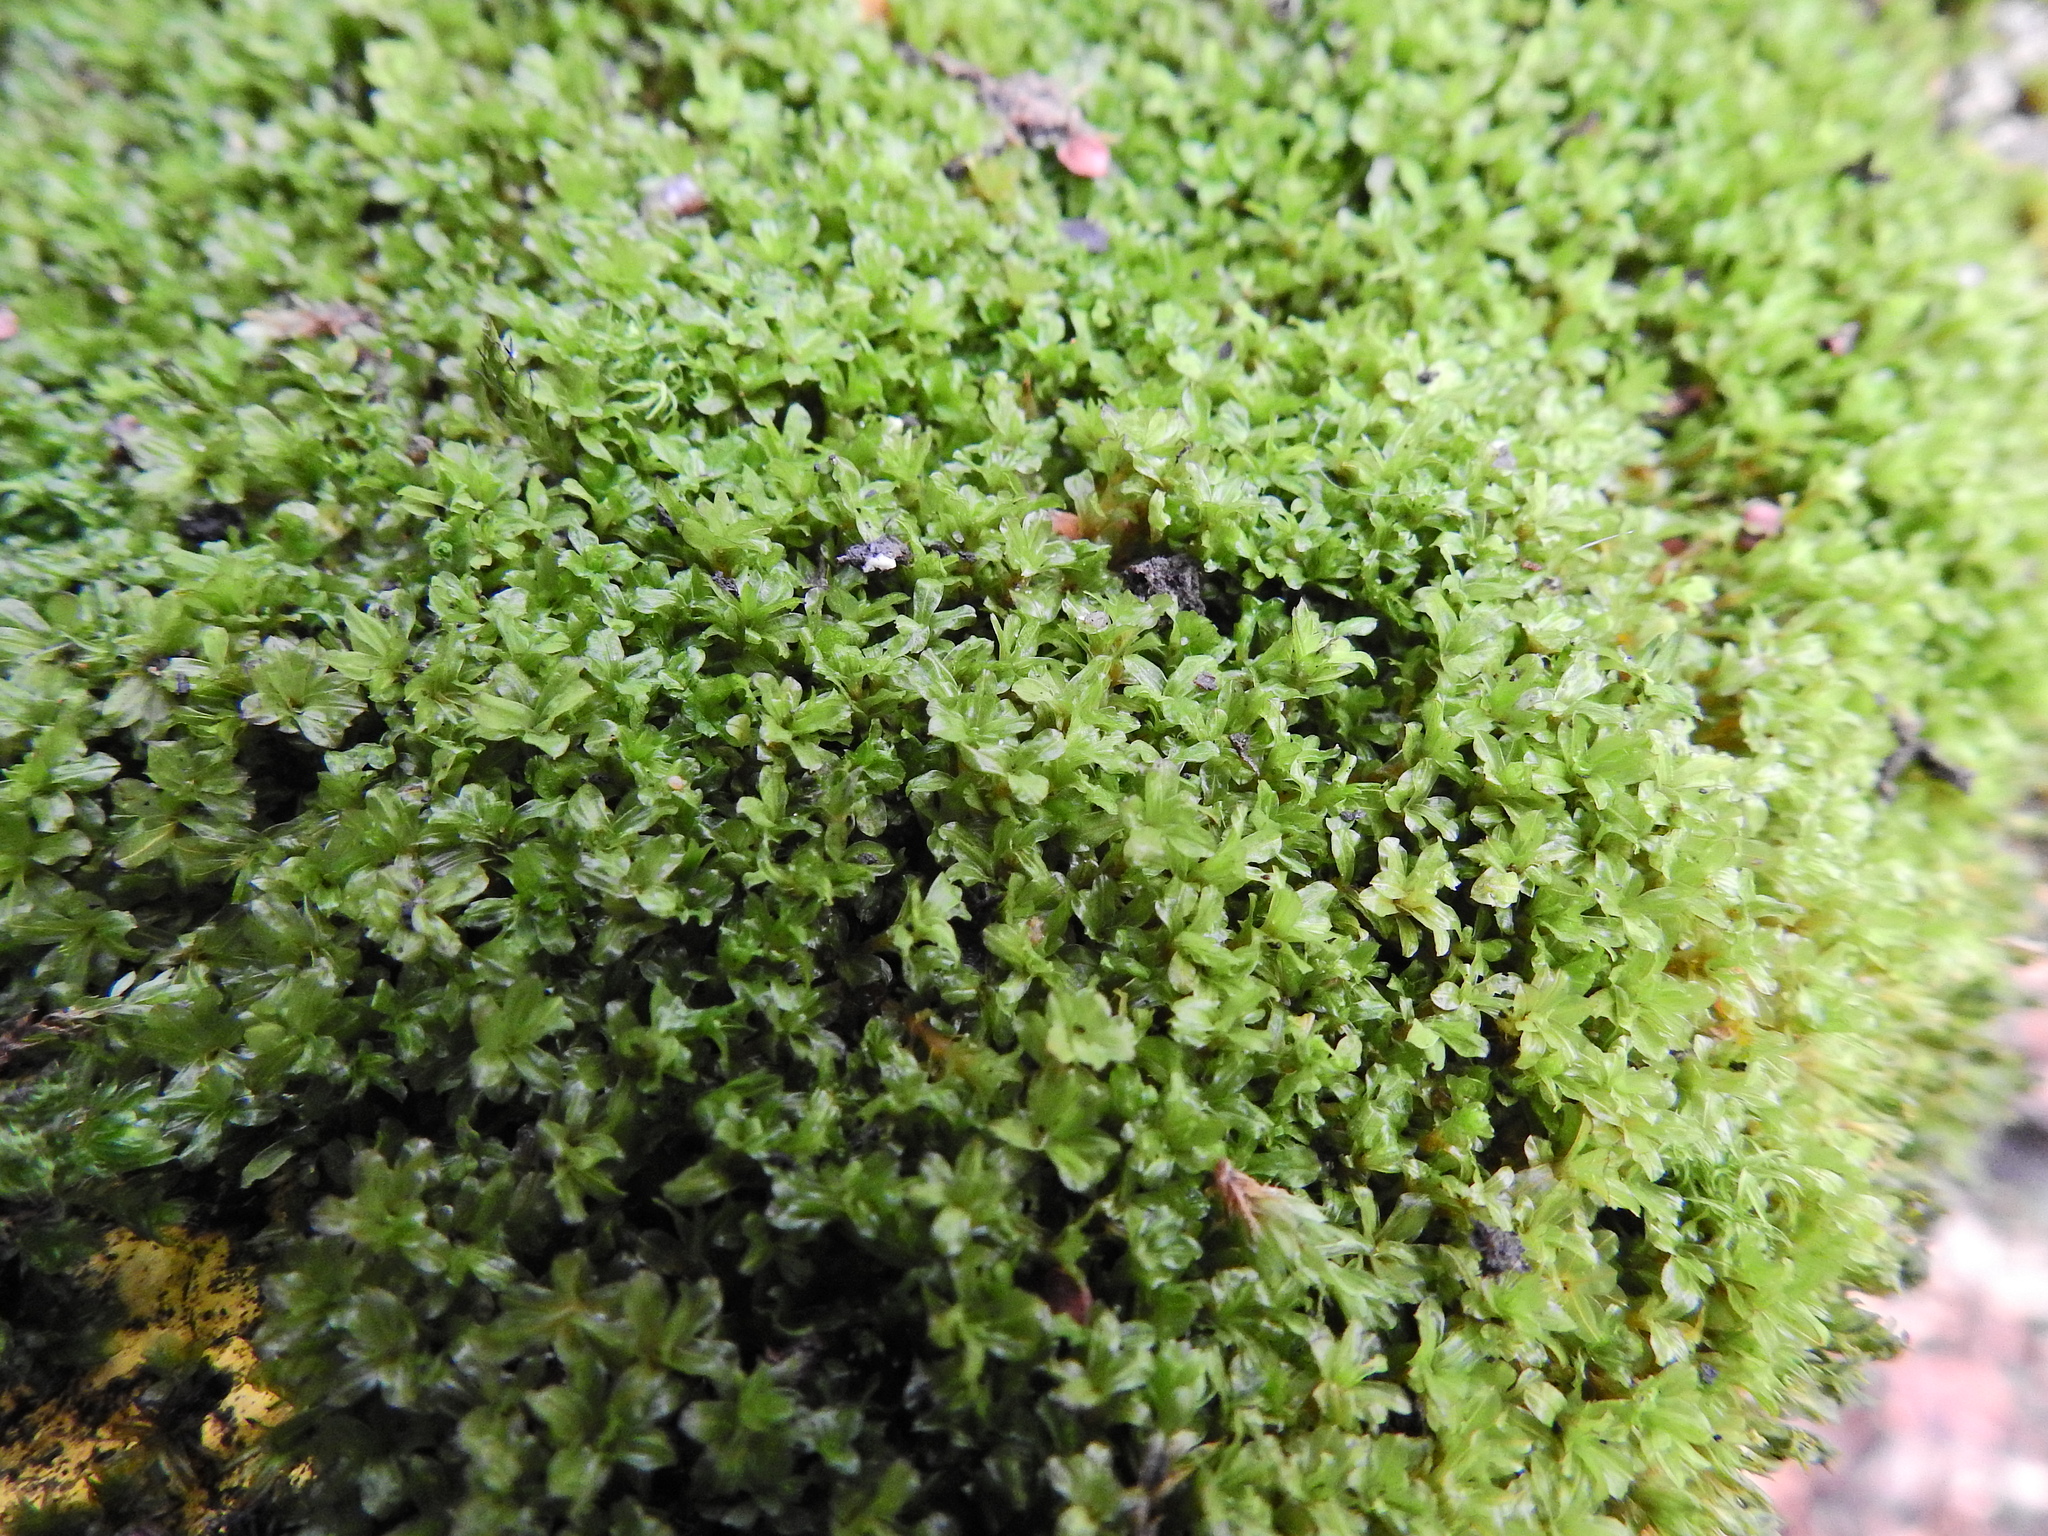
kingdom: Plantae
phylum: Bryophyta
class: Bryopsida
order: Pottiales
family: Pottiaceae
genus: Syntrichia
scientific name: Syntrichia latifolia
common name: Water screw-moss
